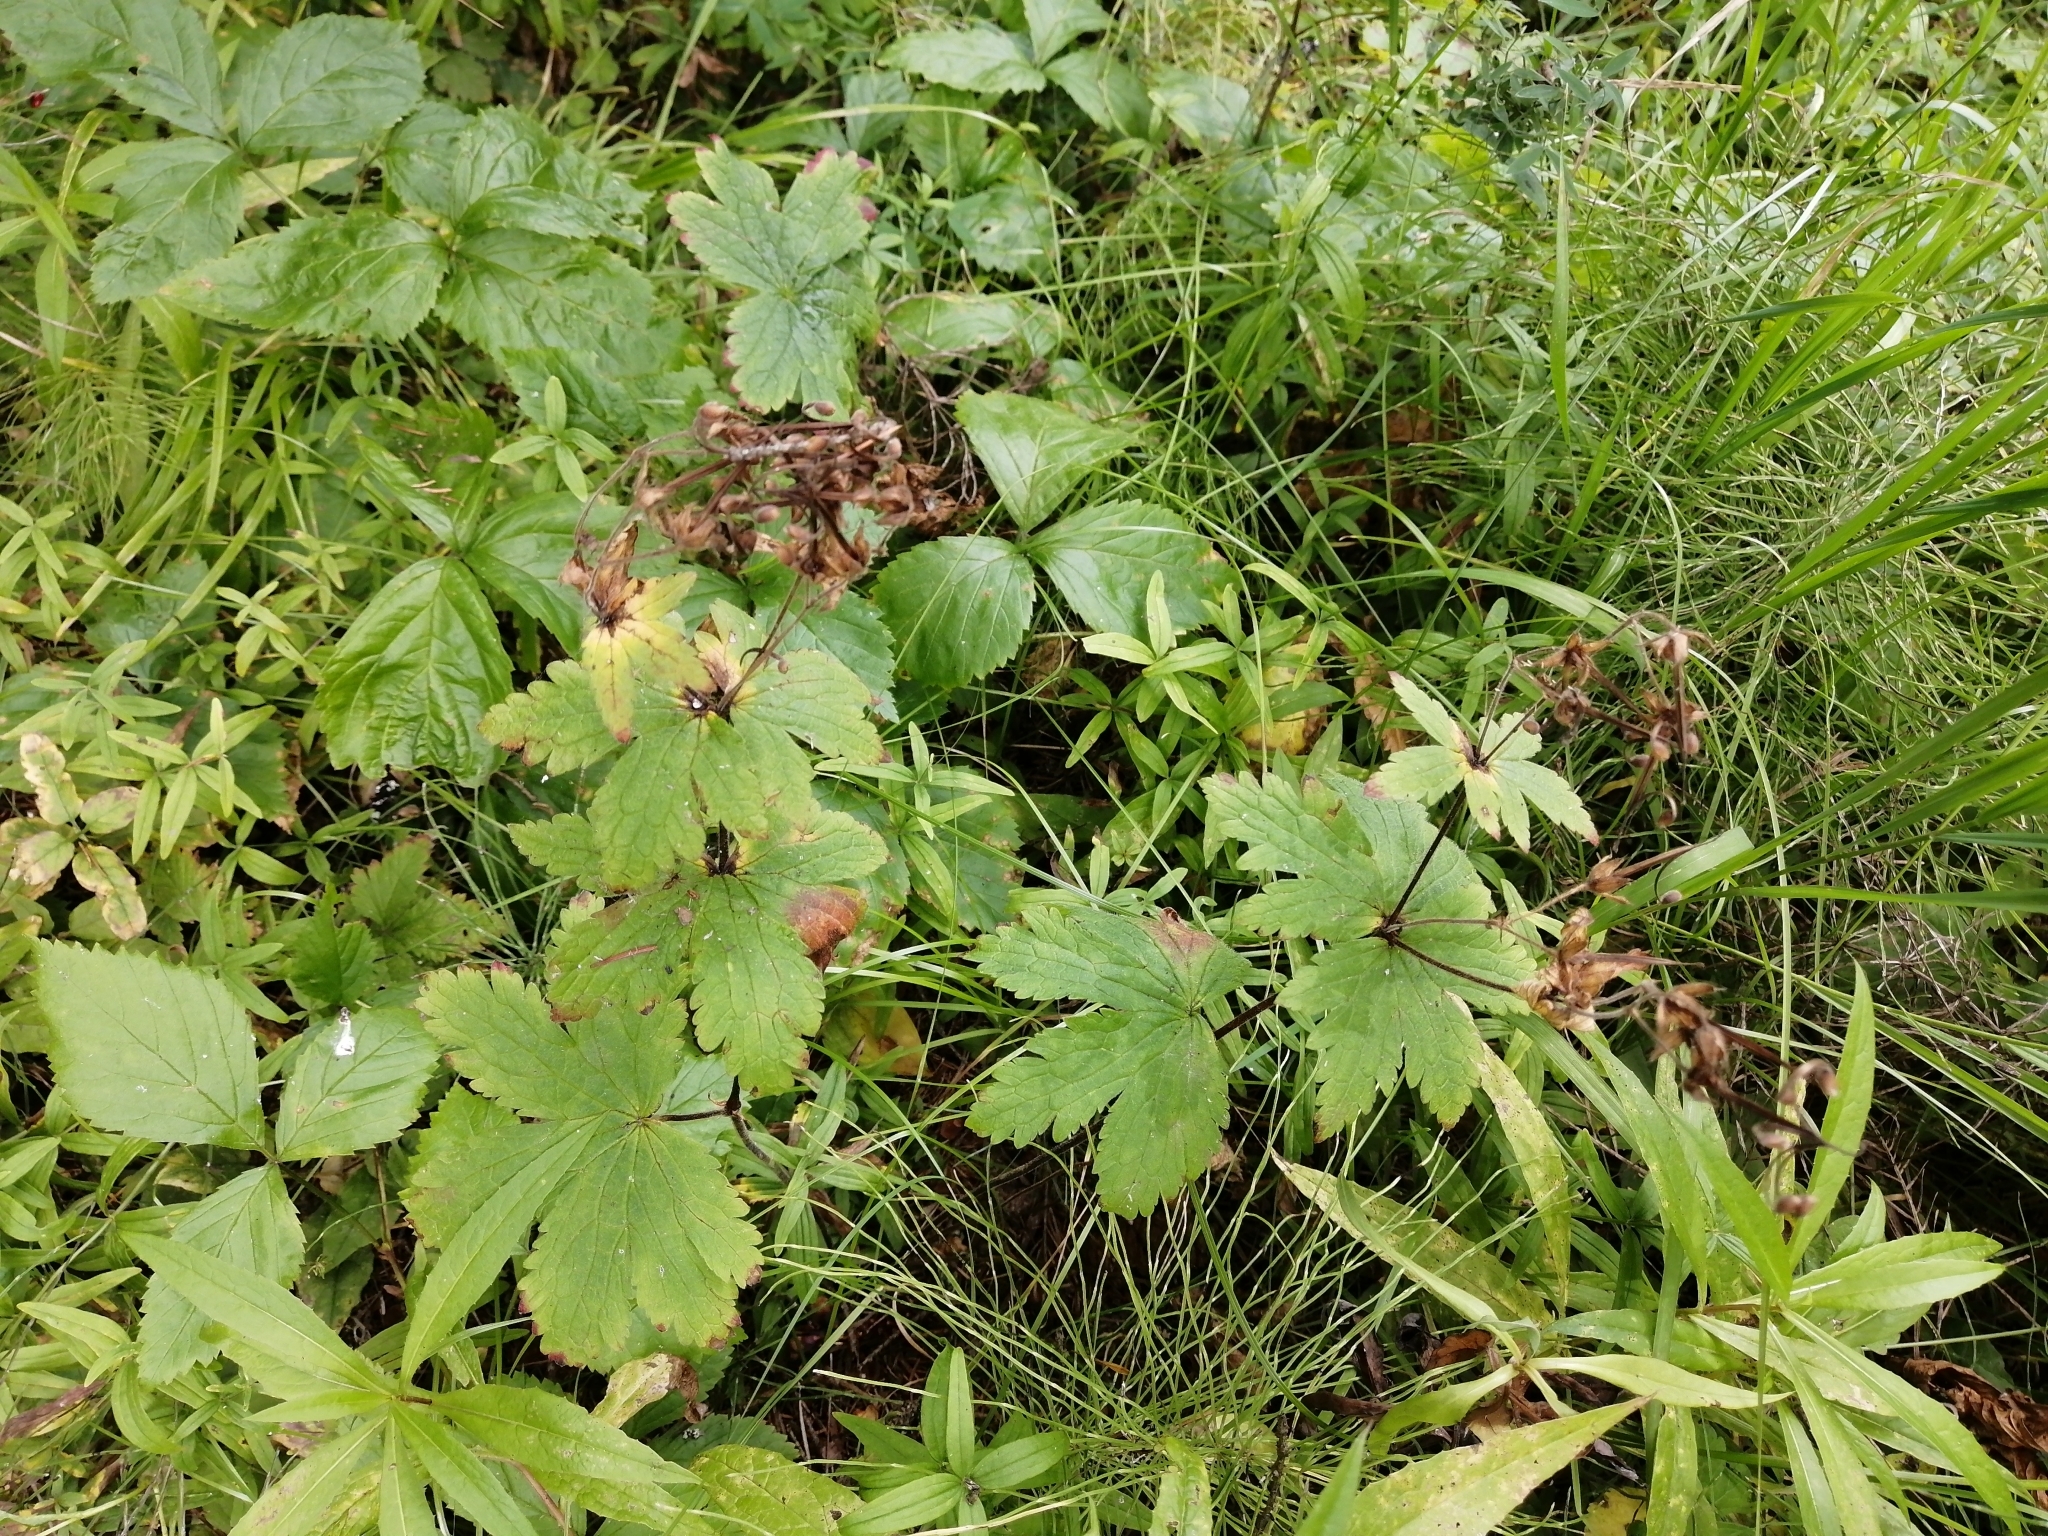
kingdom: Plantae
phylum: Tracheophyta
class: Magnoliopsida
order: Geraniales
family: Geraniaceae
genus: Geranium
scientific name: Geranium sylvaticum
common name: Wood crane's-bill
